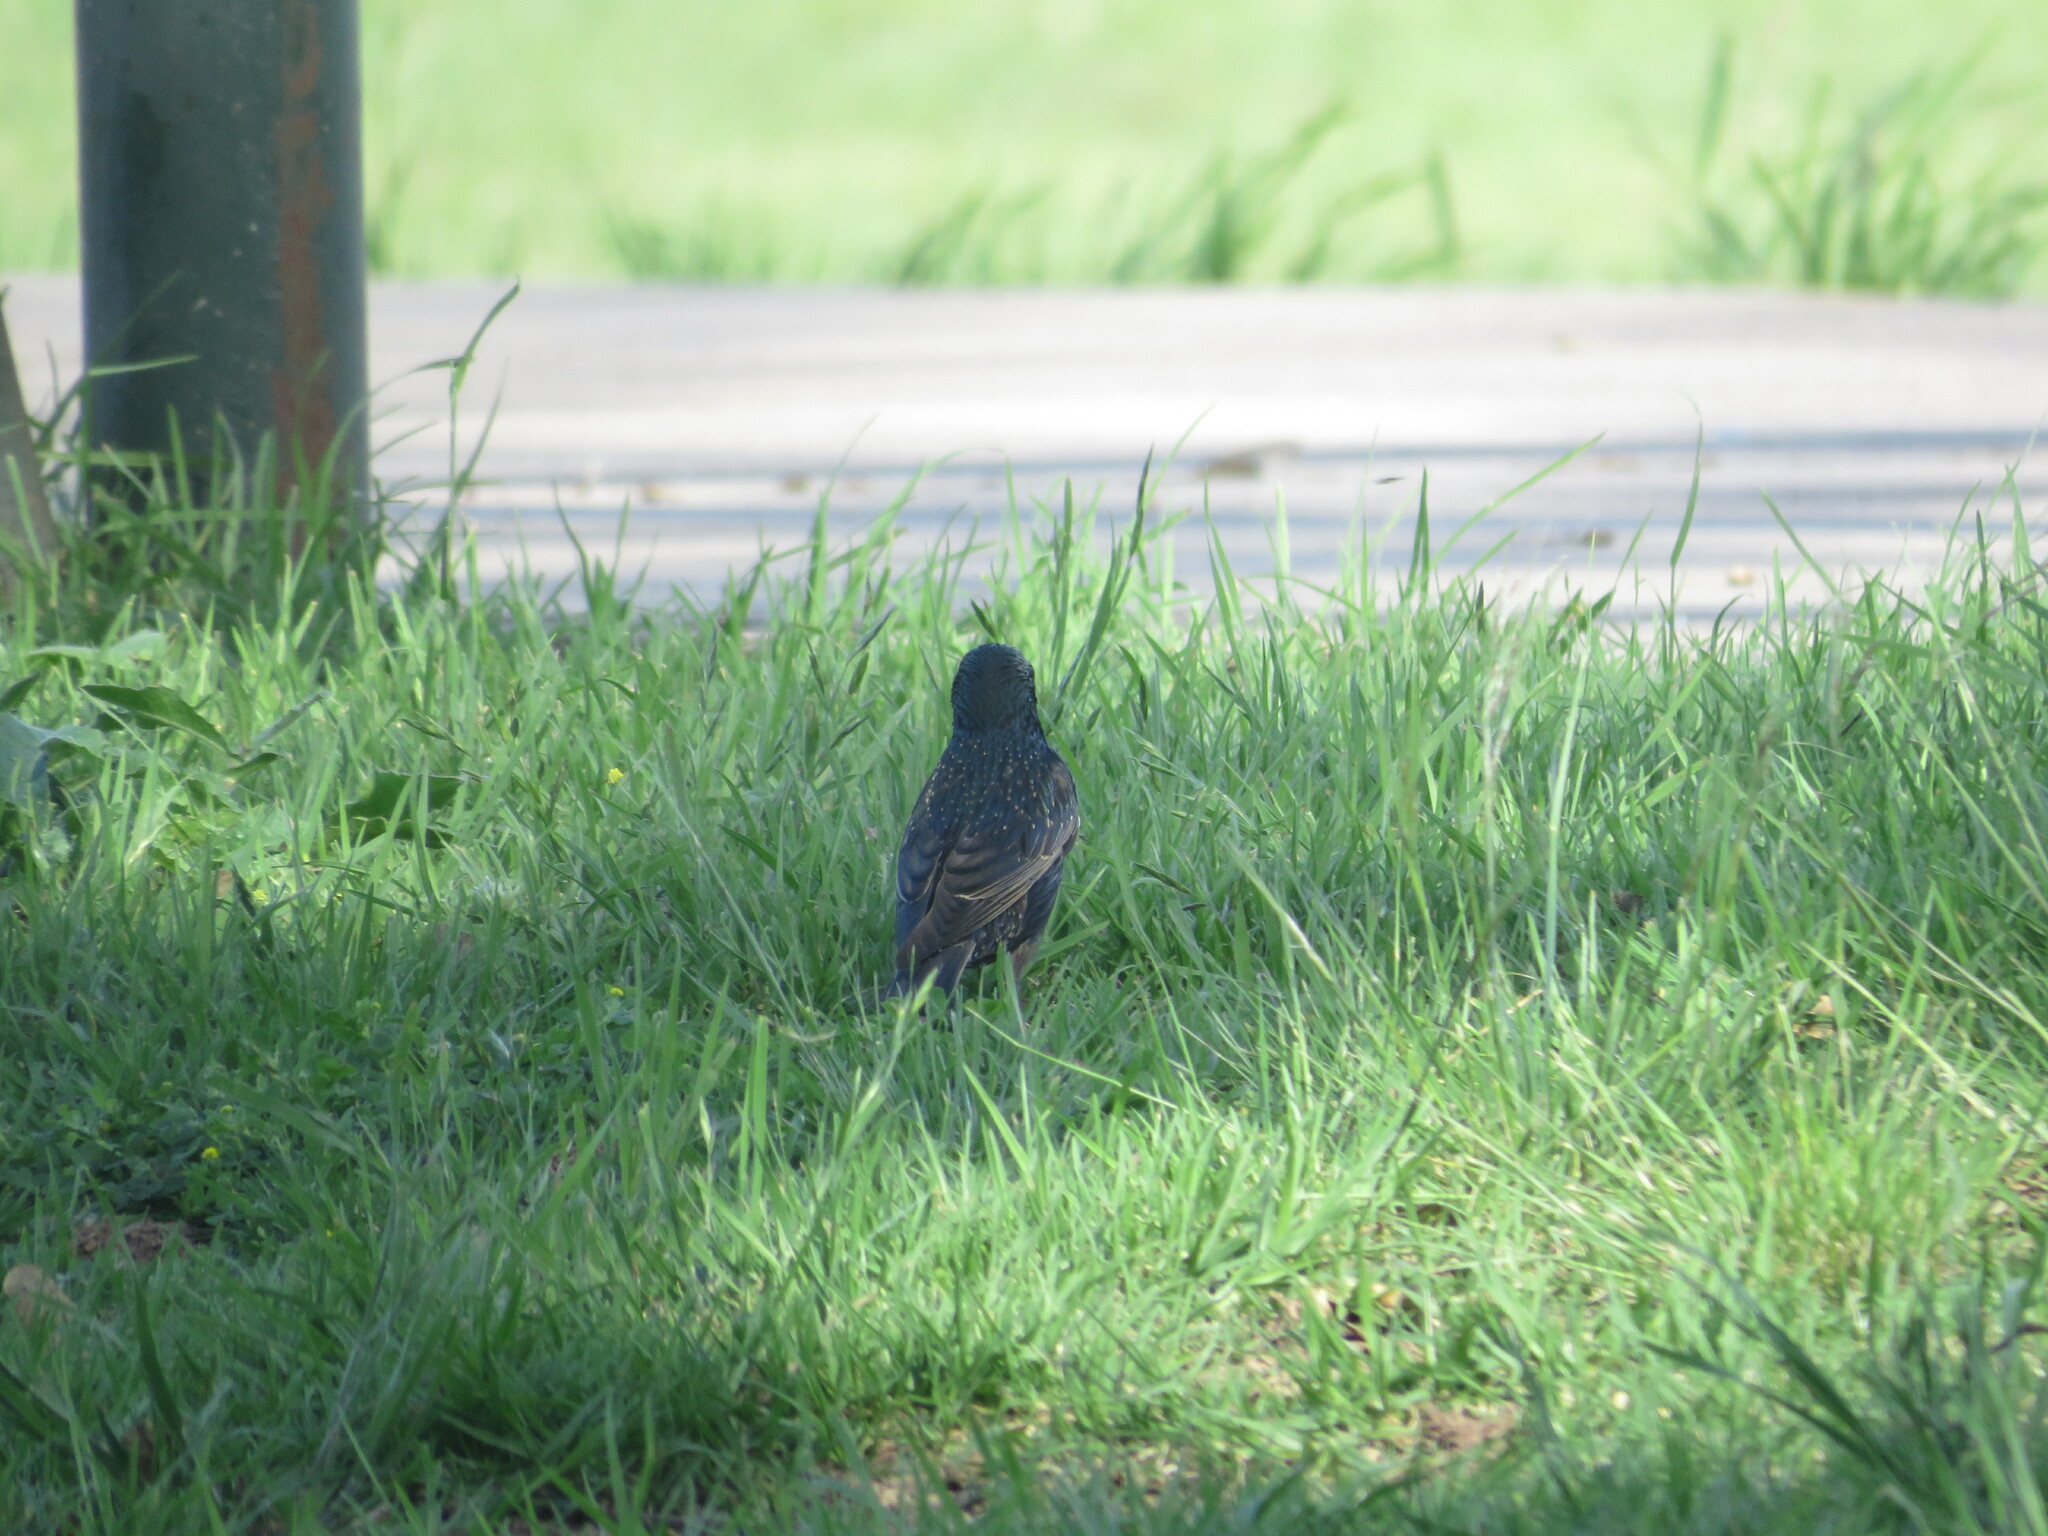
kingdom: Animalia
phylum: Chordata
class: Aves
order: Passeriformes
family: Sturnidae
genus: Sturnus
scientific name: Sturnus vulgaris
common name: Common starling
